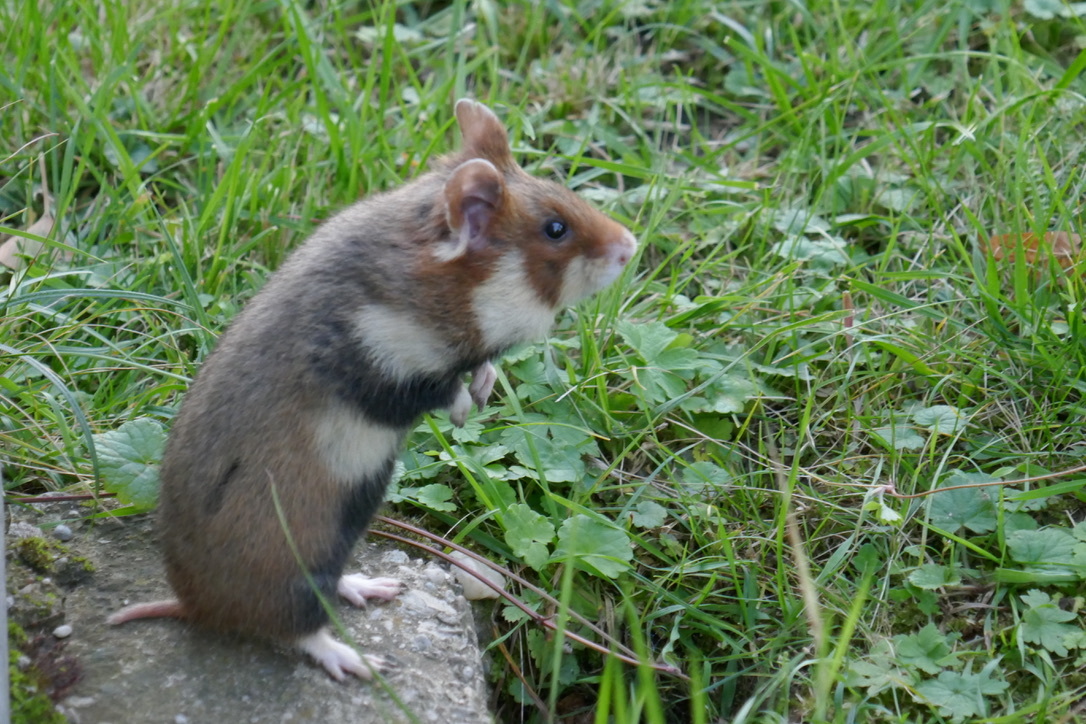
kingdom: Animalia
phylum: Chordata
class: Mammalia
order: Rodentia
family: Cricetidae
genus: Cricetus
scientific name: Cricetus cricetus
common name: Common hamster
